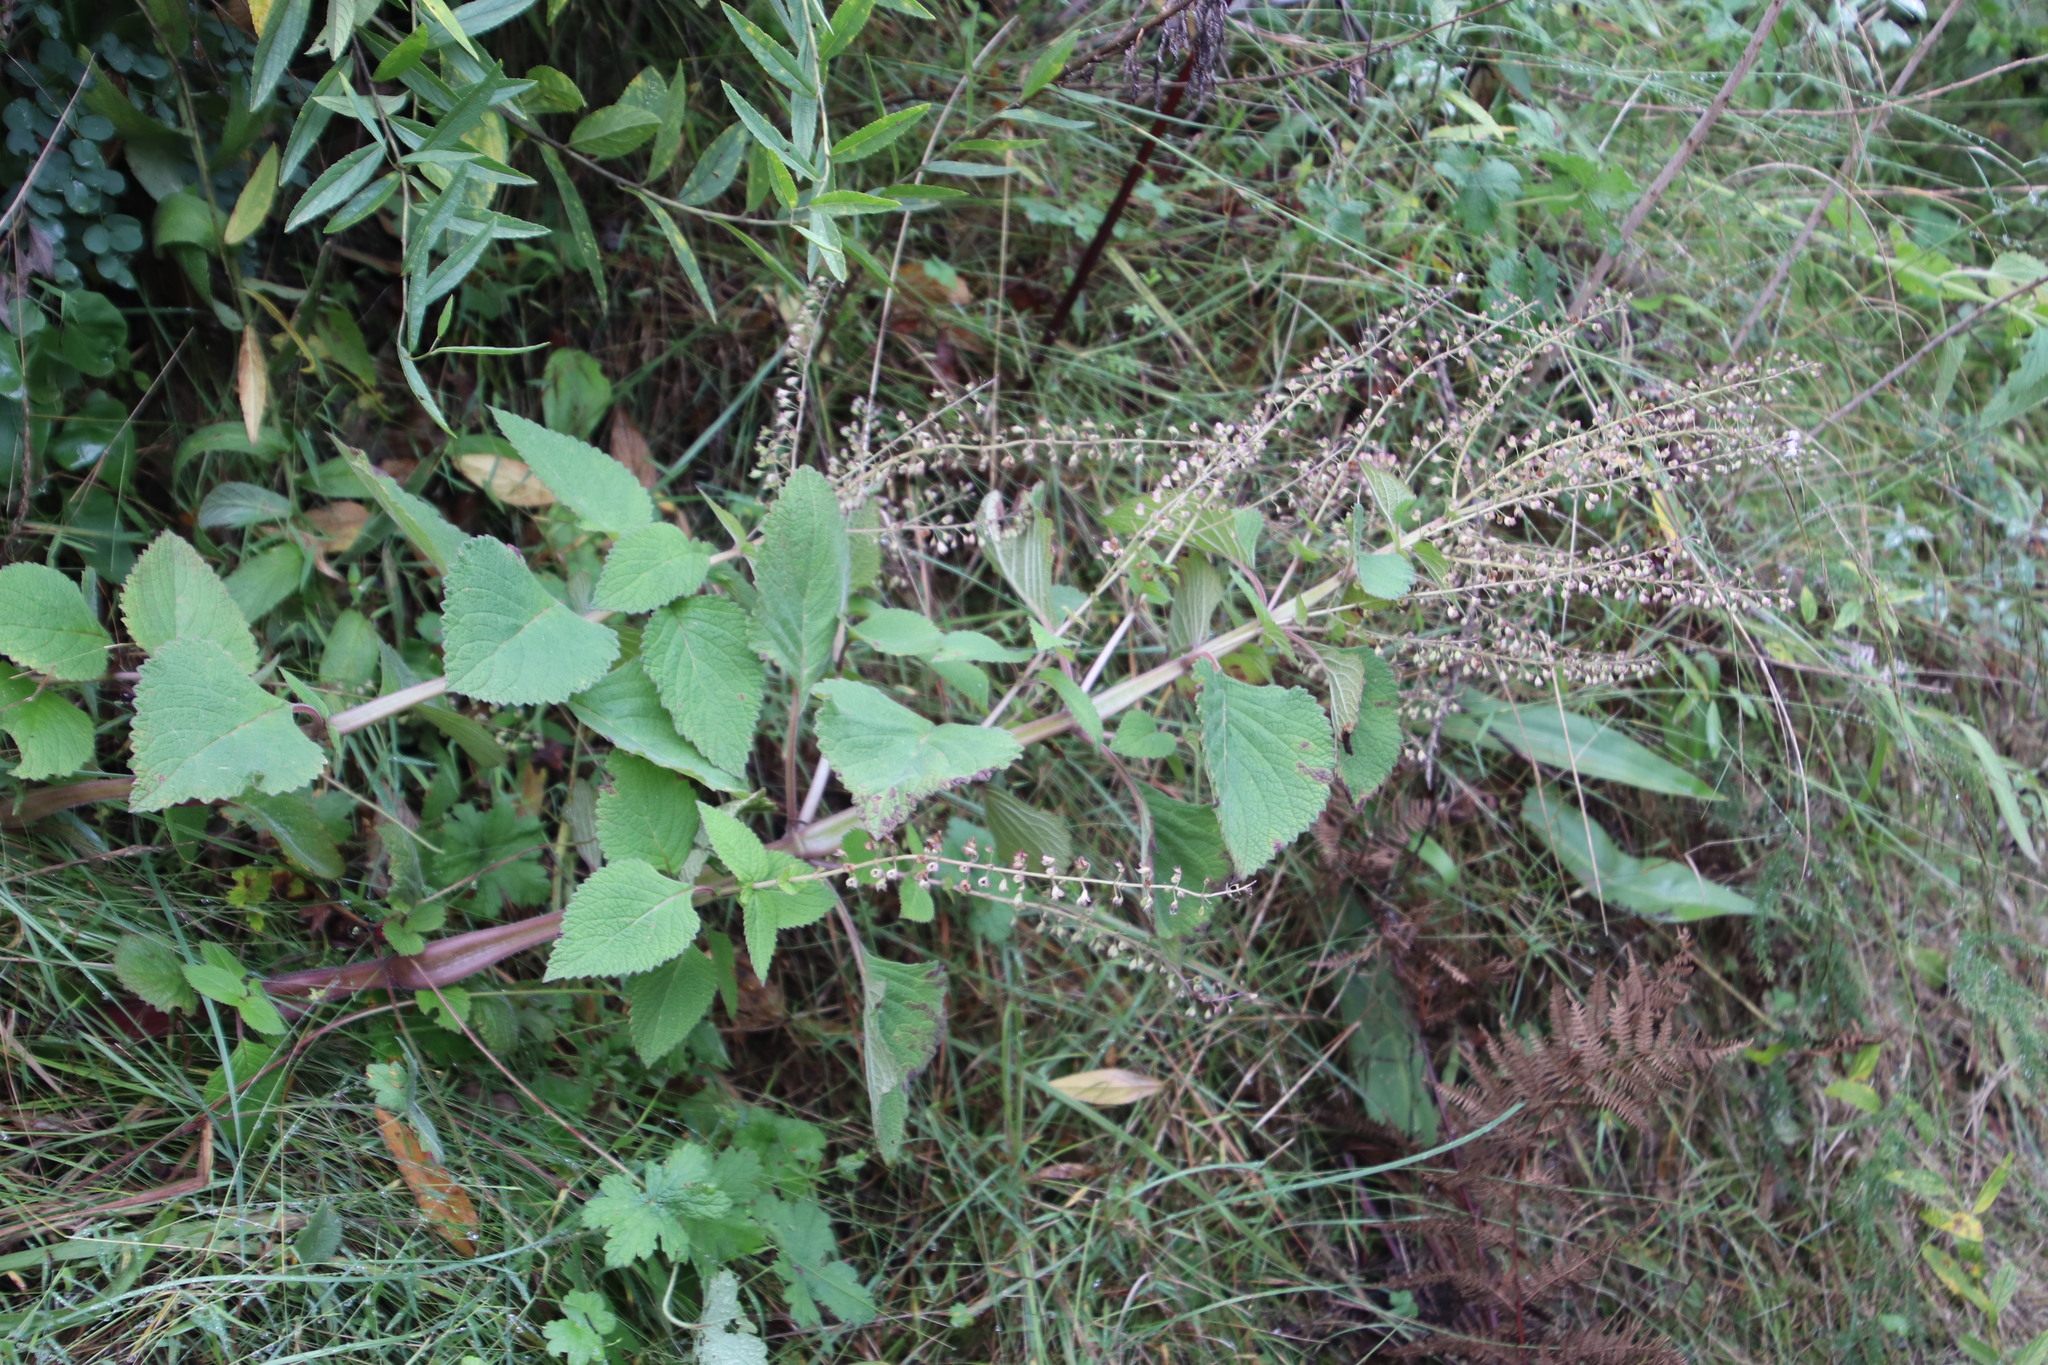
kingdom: Plantae
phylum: Tracheophyta
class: Magnoliopsida
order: Lamiales
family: Lamiaceae
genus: Plectranthus
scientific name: Plectranthus grallatus
